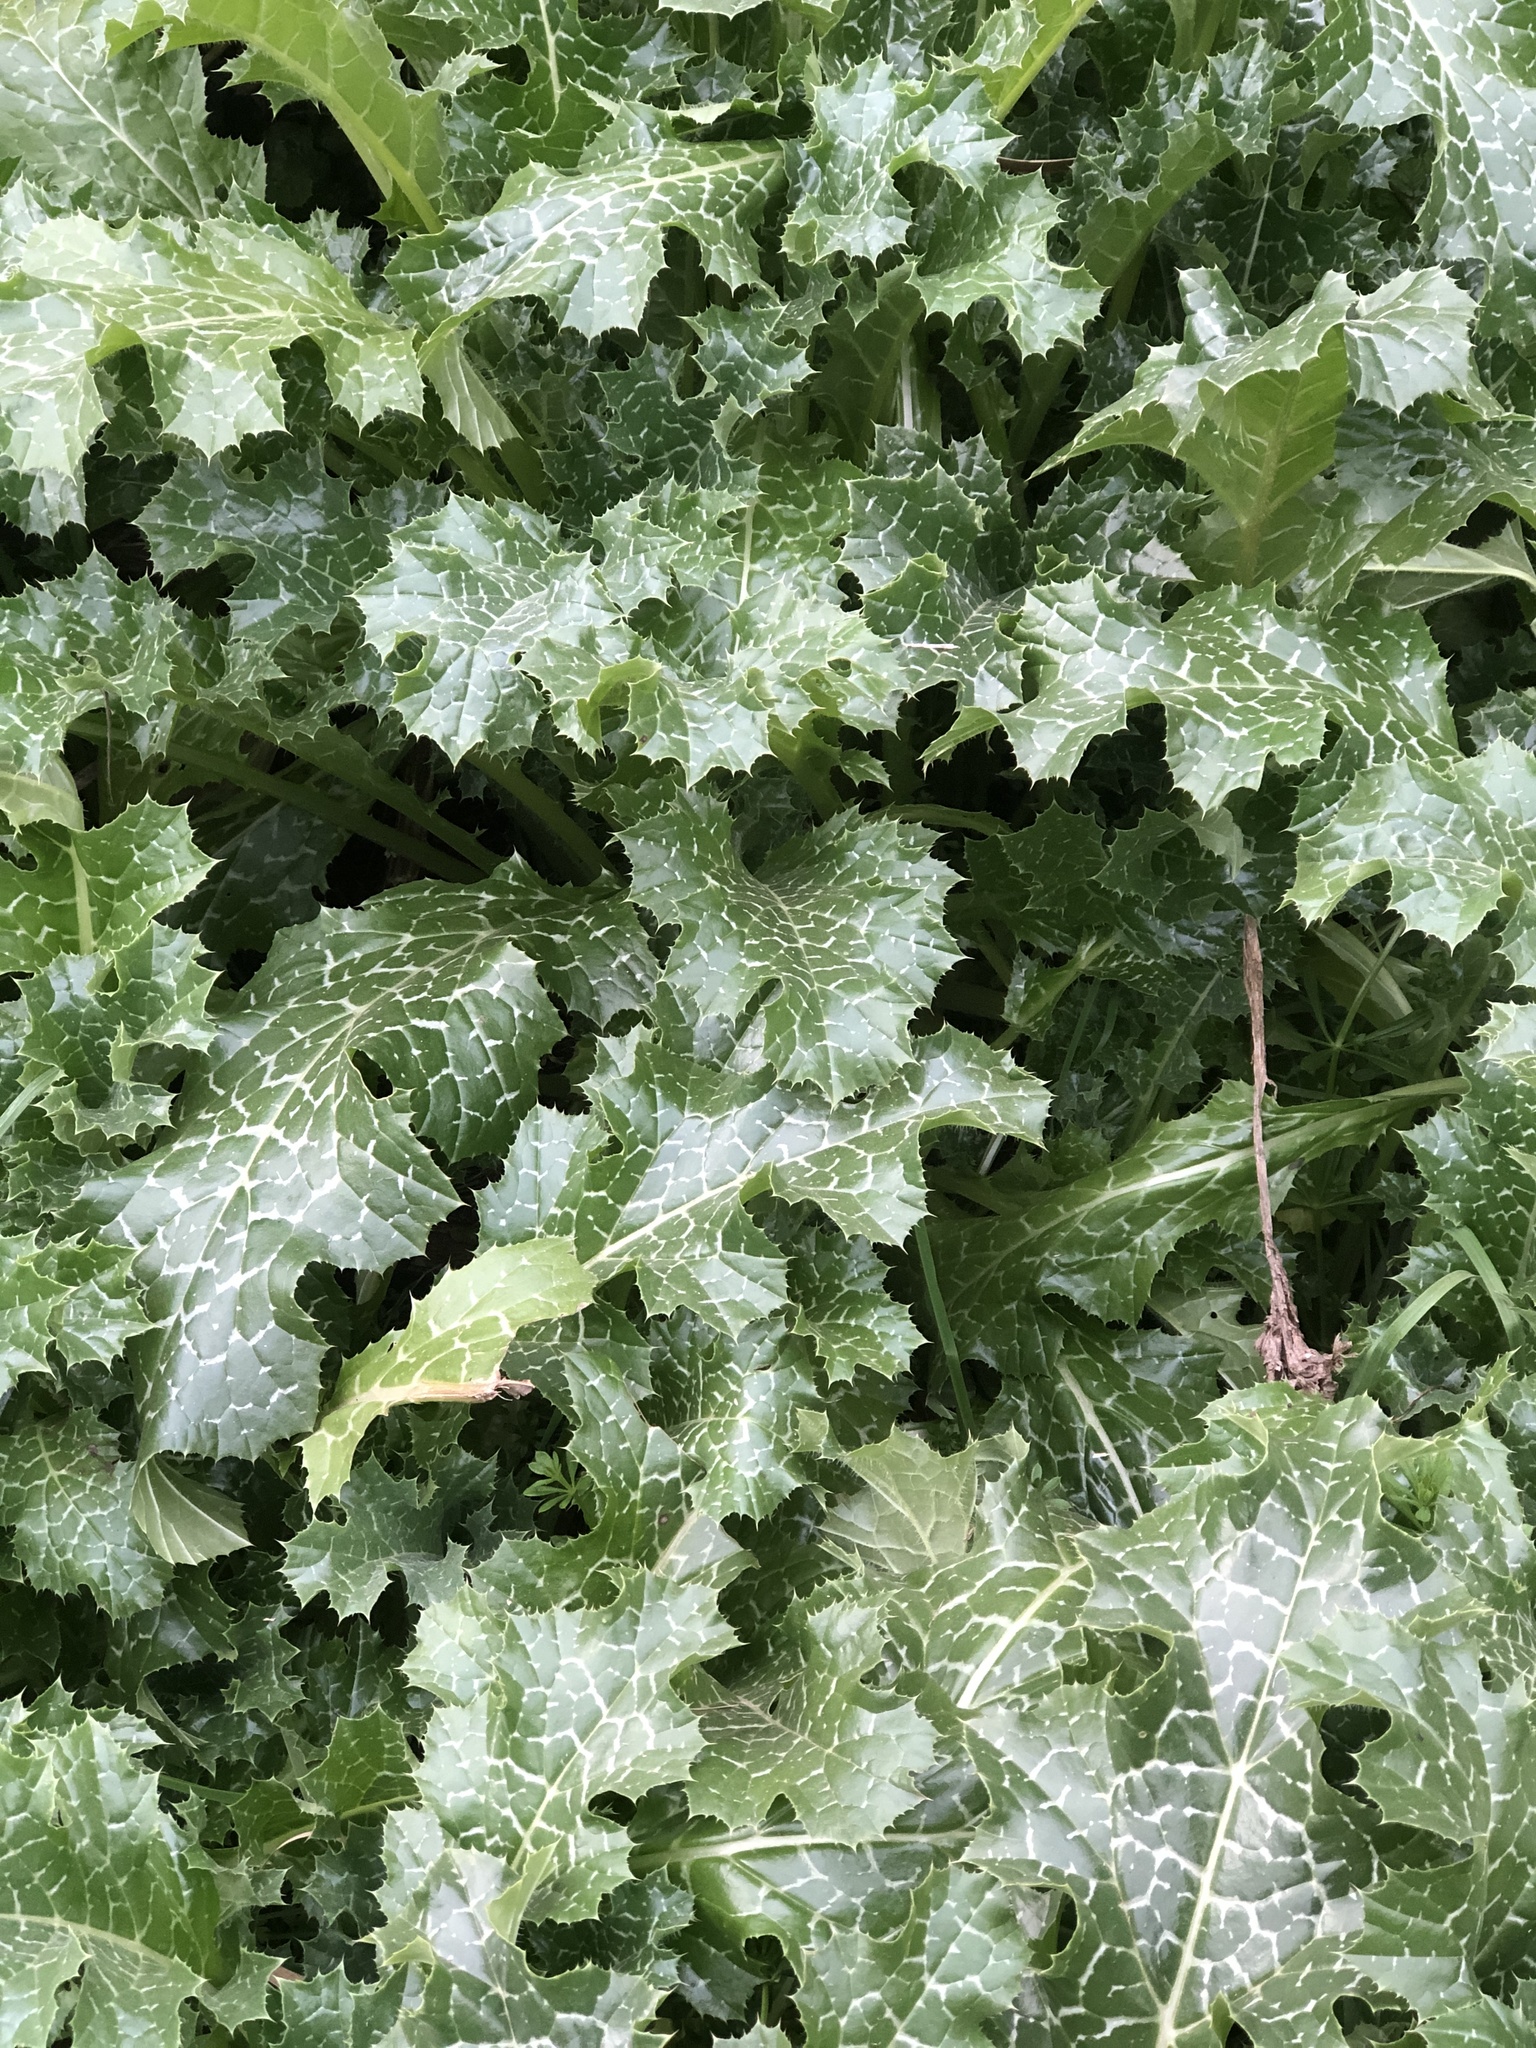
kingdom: Plantae
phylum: Tracheophyta
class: Magnoliopsida
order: Asterales
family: Asteraceae
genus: Silybum
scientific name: Silybum marianum
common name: Milk thistle
